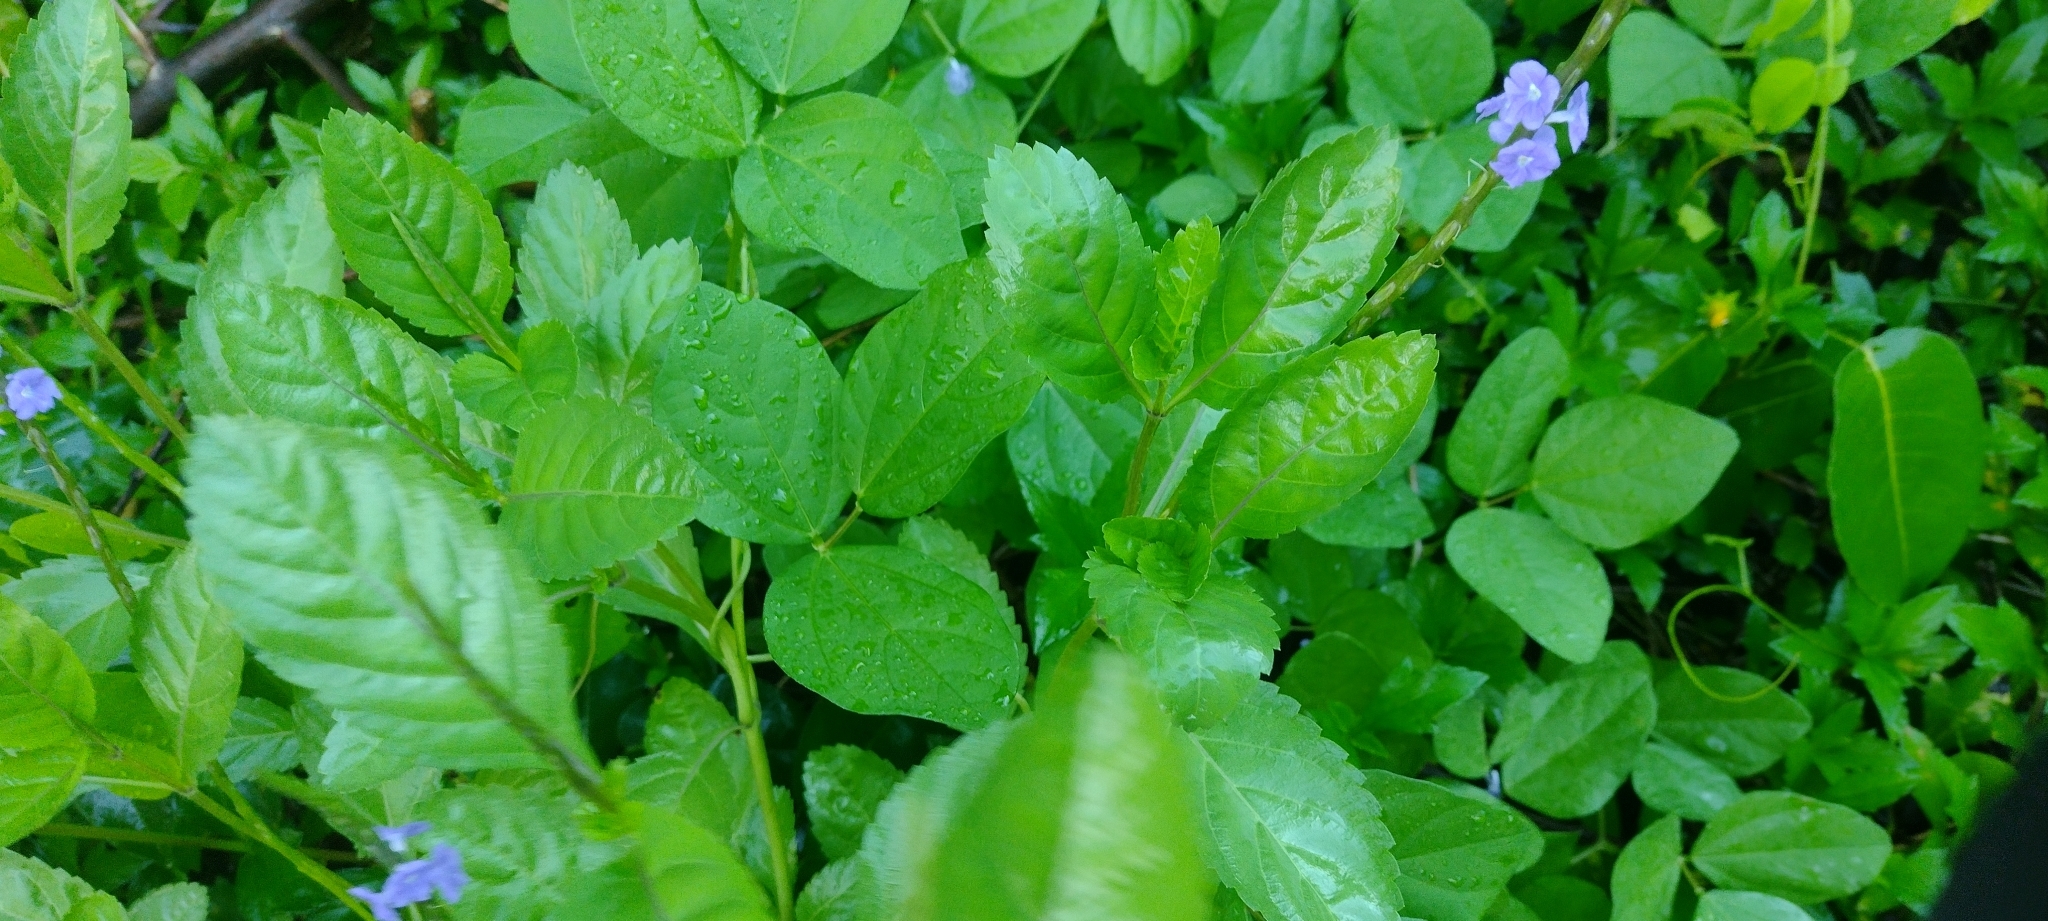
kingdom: Plantae
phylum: Tracheophyta
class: Magnoliopsida
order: Lamiales
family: Verbenaceae
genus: Stachytarpheta
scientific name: Stachytarpheta jamaicensis
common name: Light-blue snakeweed
